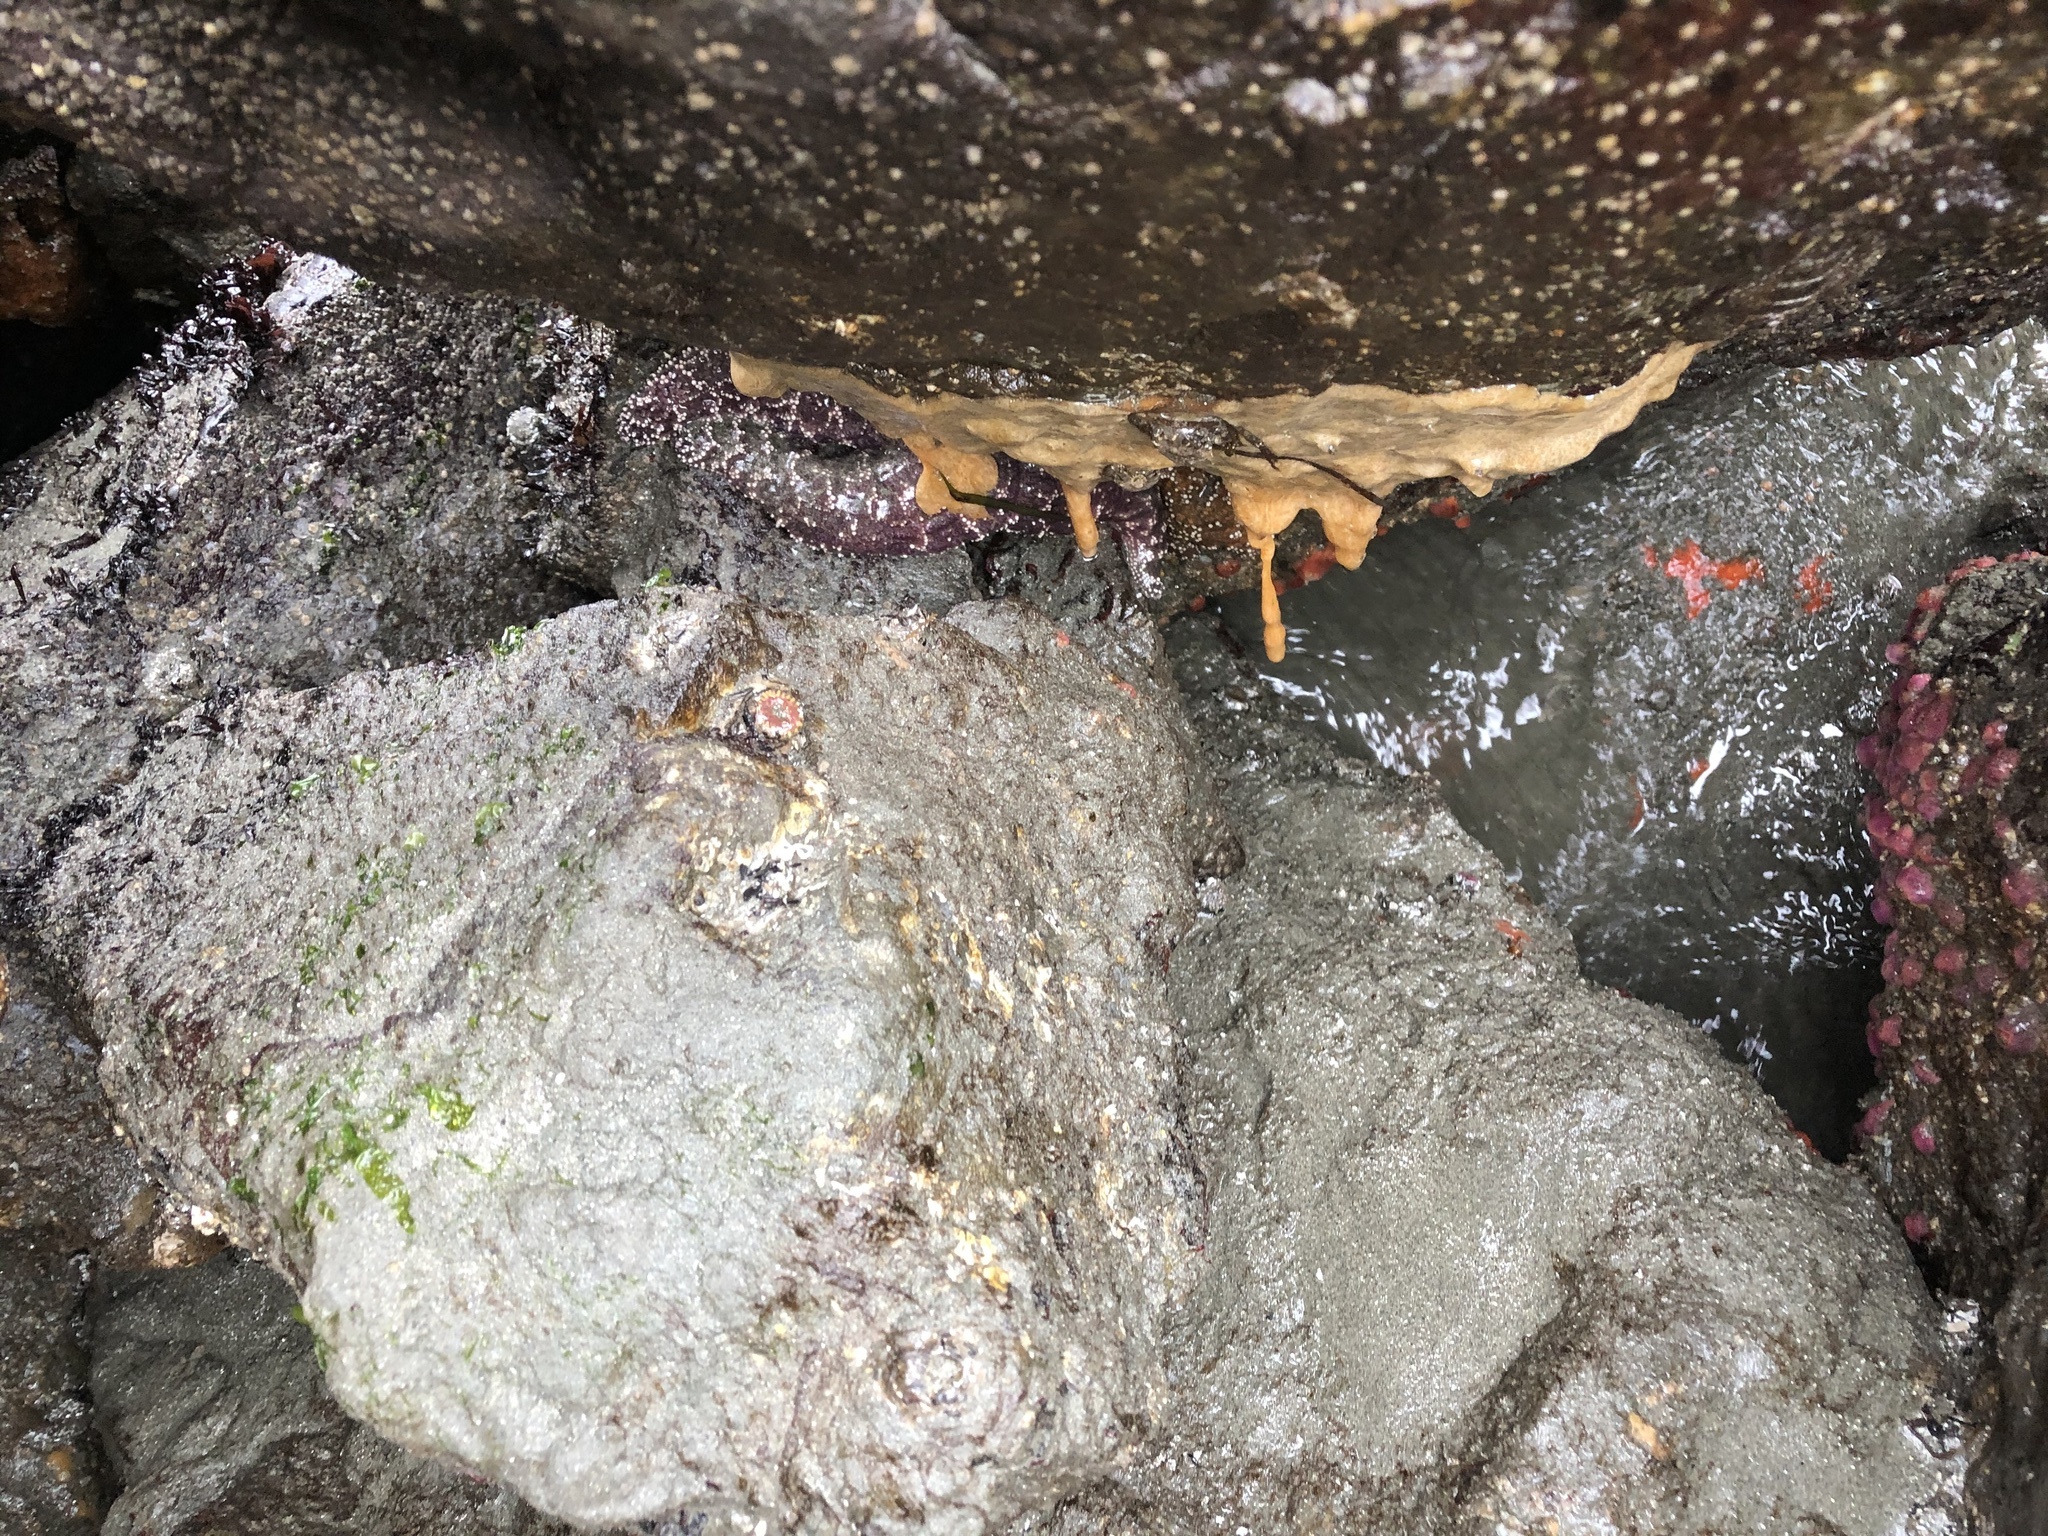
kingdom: Animalia
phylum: Chordata
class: Ascidiacea
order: Aplousobranchia
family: Didemnidae
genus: Didemnum
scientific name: Didemnum vexillum
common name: Compound sea squirt
